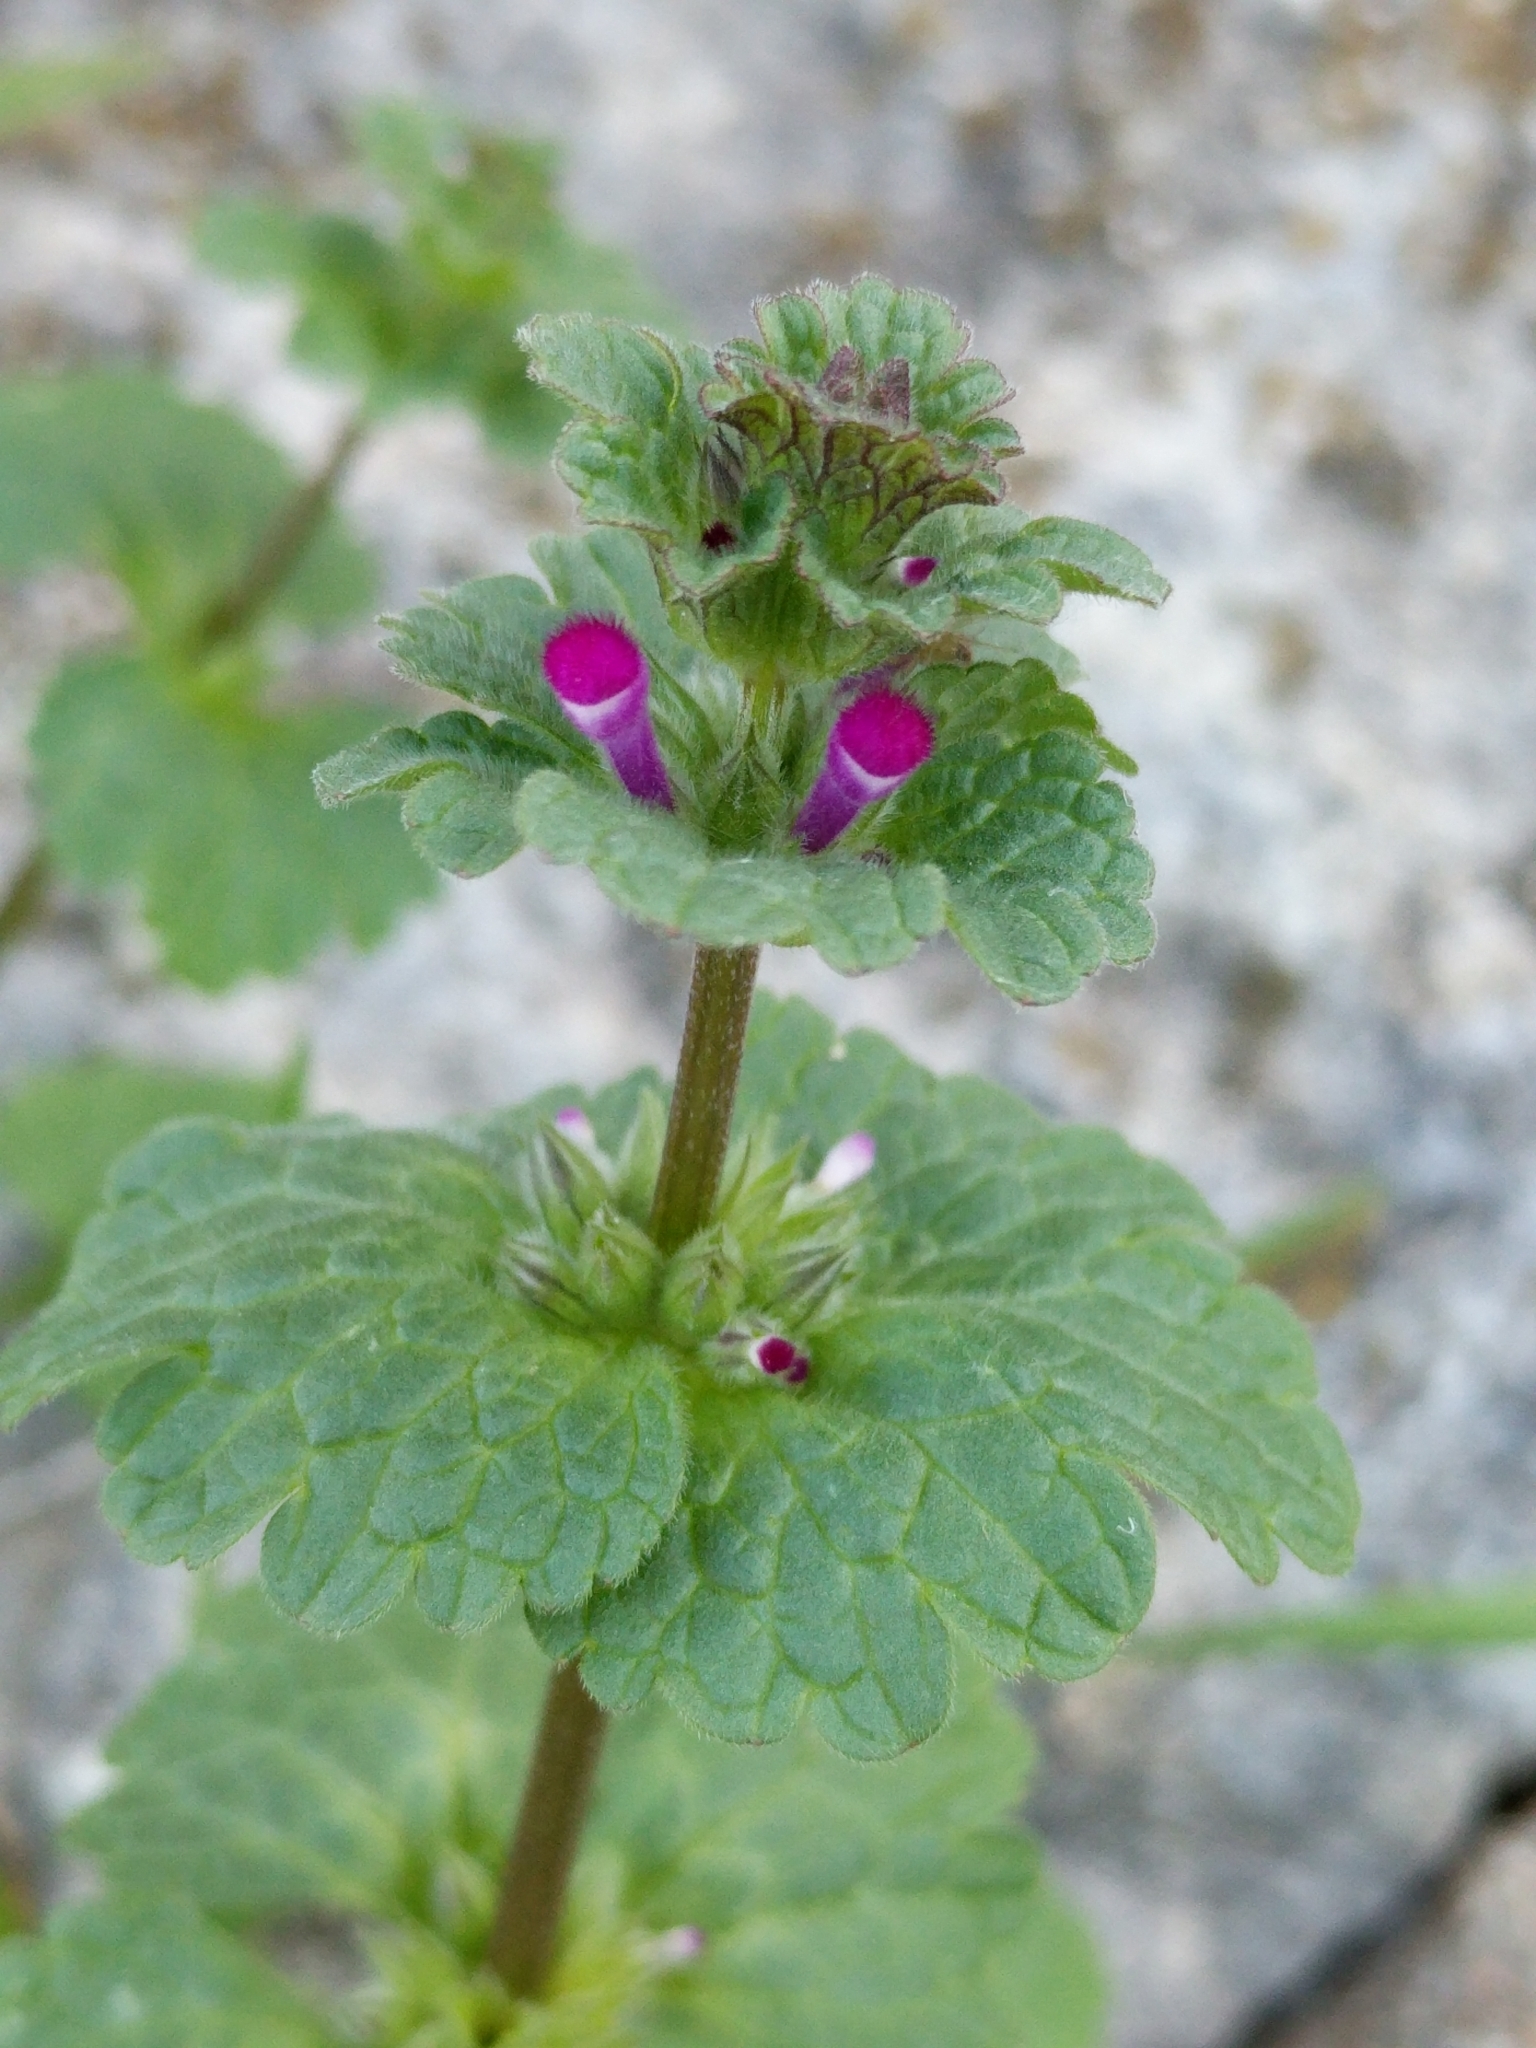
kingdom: Plantae
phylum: Tracheophyta
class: Magnoliopsida
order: Lamiales
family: Lamiaceae
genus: Lamium
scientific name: Lamium amplexicaule
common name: Henbit dead-nettle
